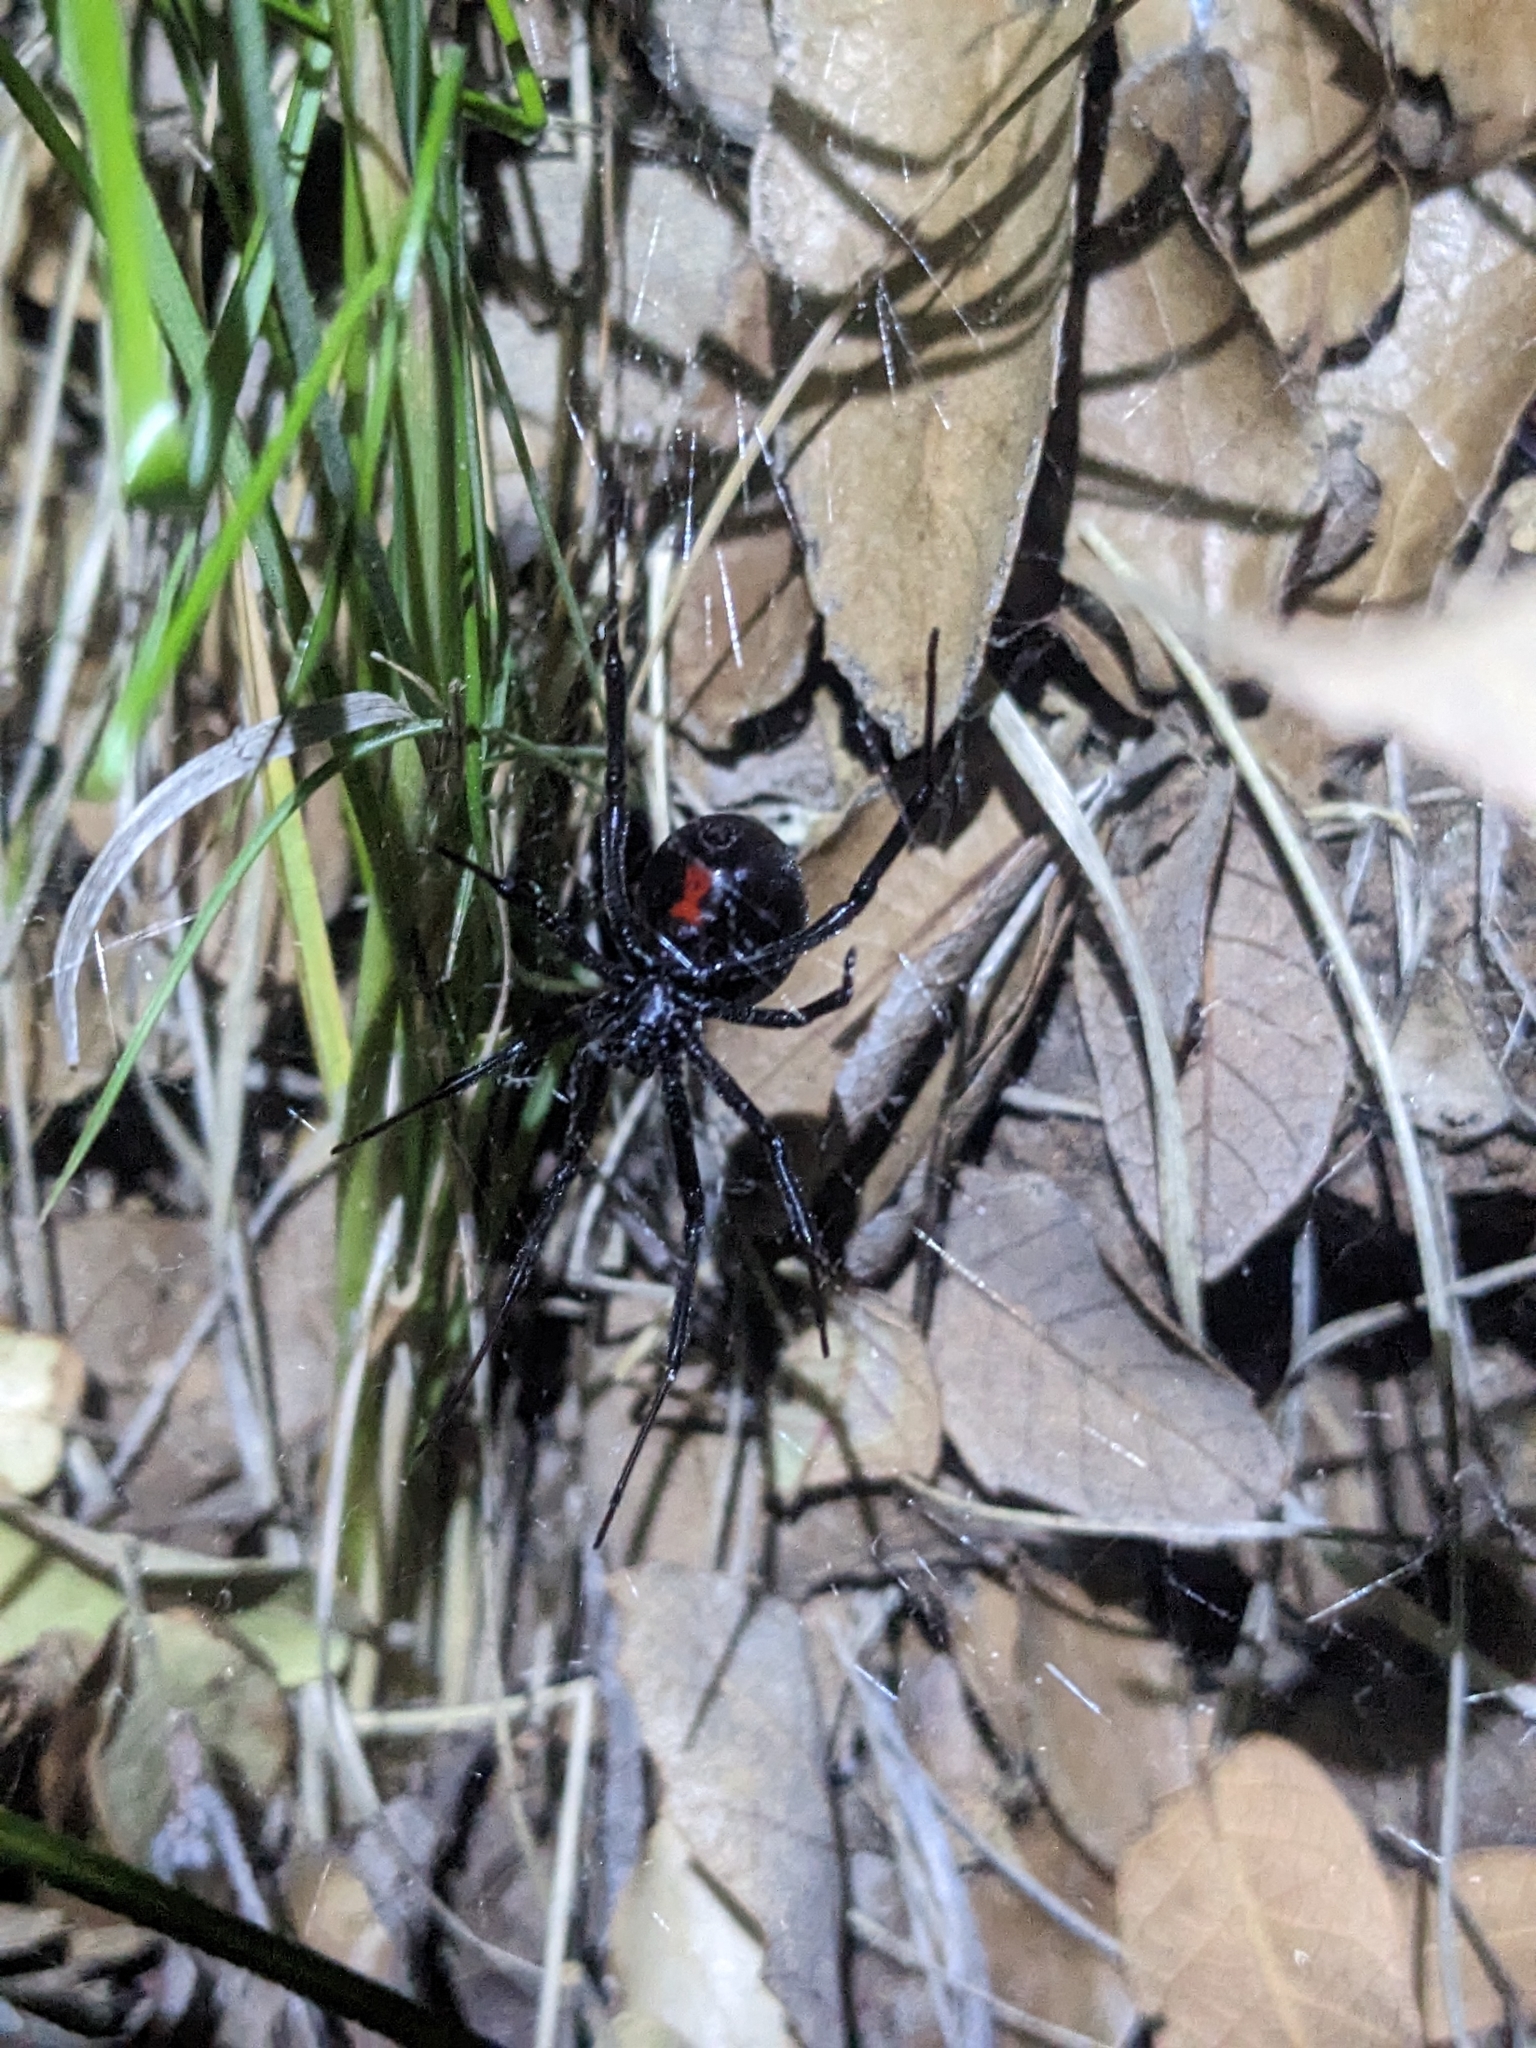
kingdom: Animalia
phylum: Arthropoda
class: Arachnida
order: Araneae
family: Theridiidae
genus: Latrodectus
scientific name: Latrodectus hesperus
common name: Western black widow
